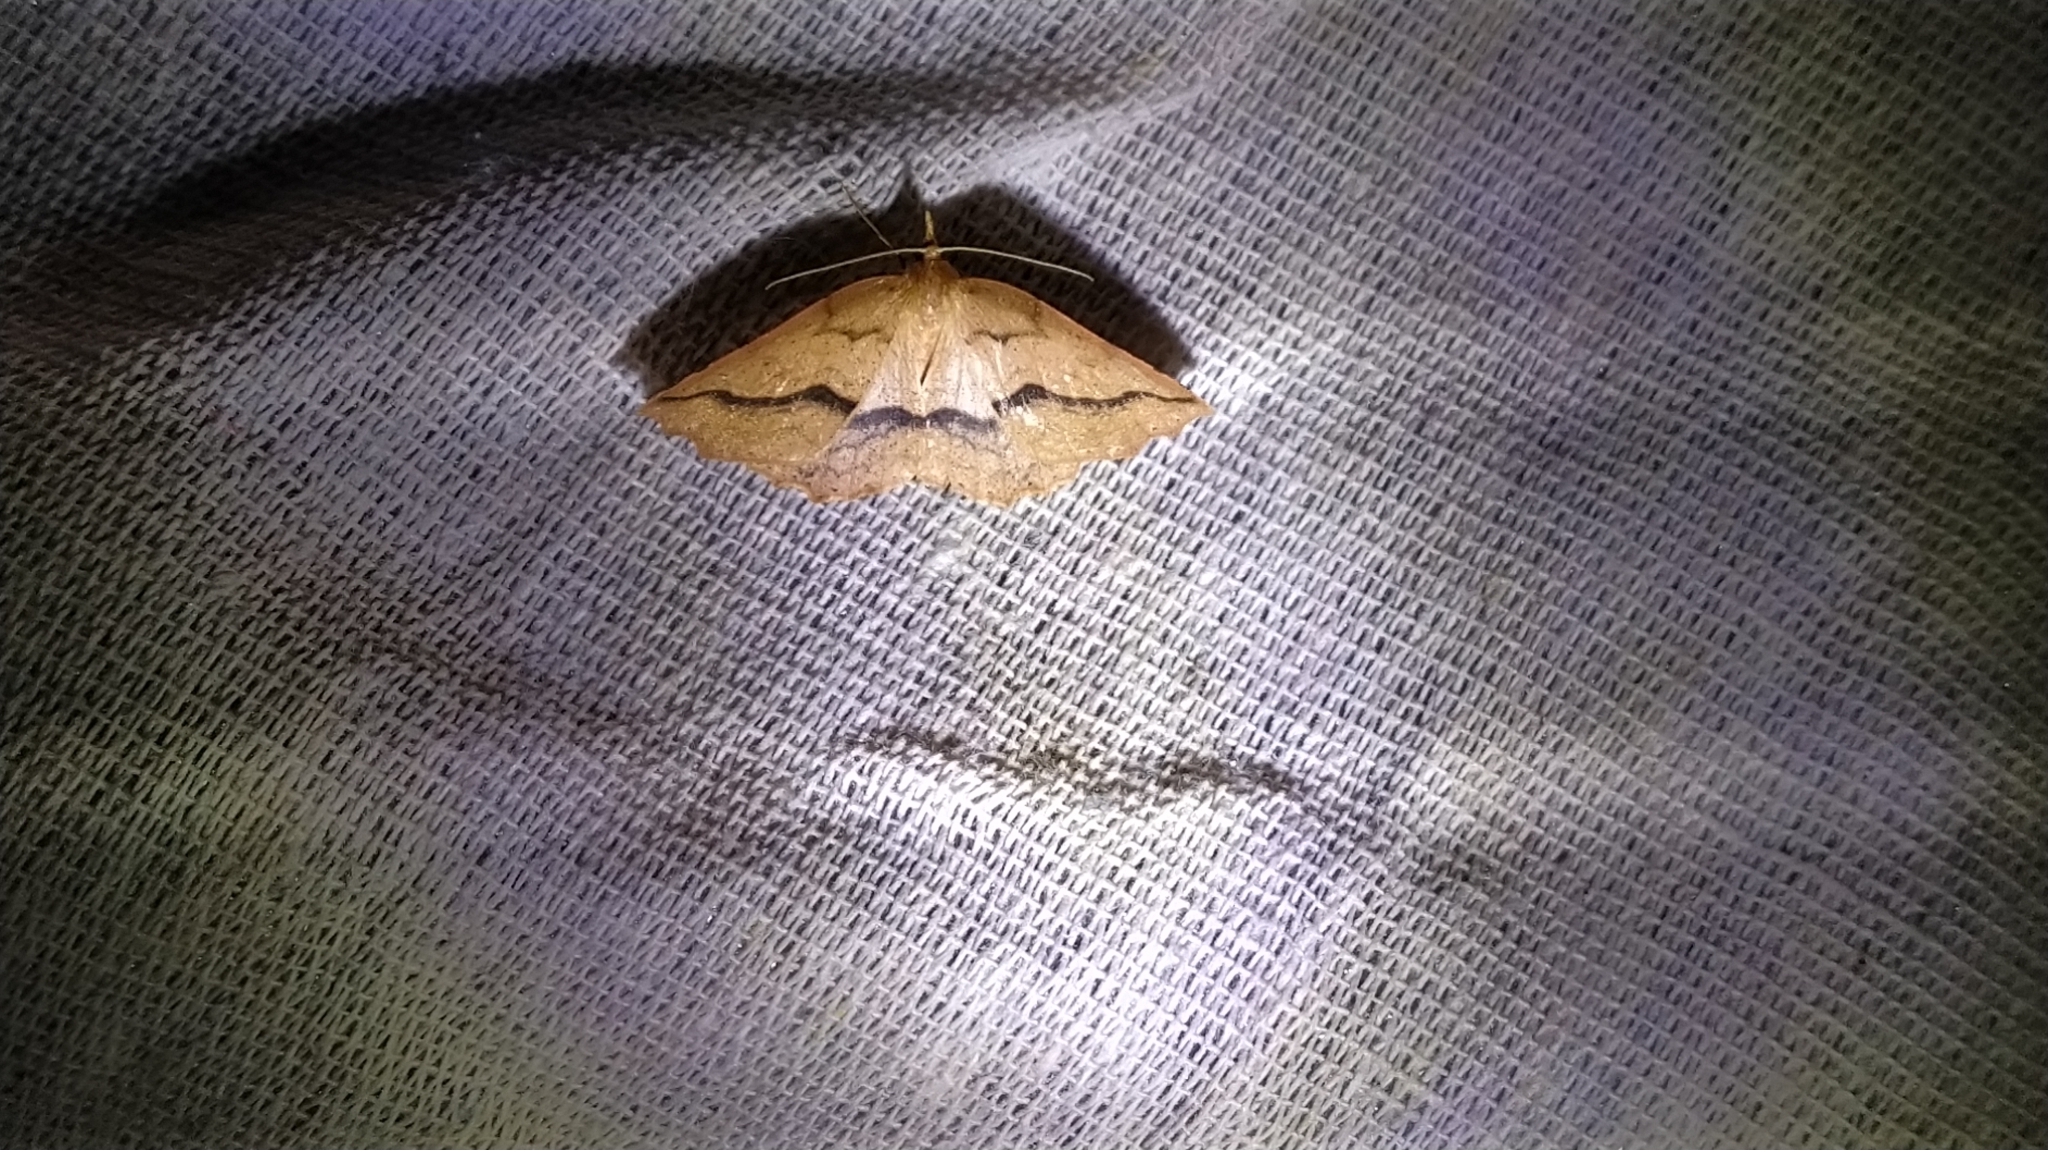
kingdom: Animalia
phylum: Arthropoda
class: Insecta
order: Lepidoptera
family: Geometridae
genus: Ischalis
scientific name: Ischalis variabilis
